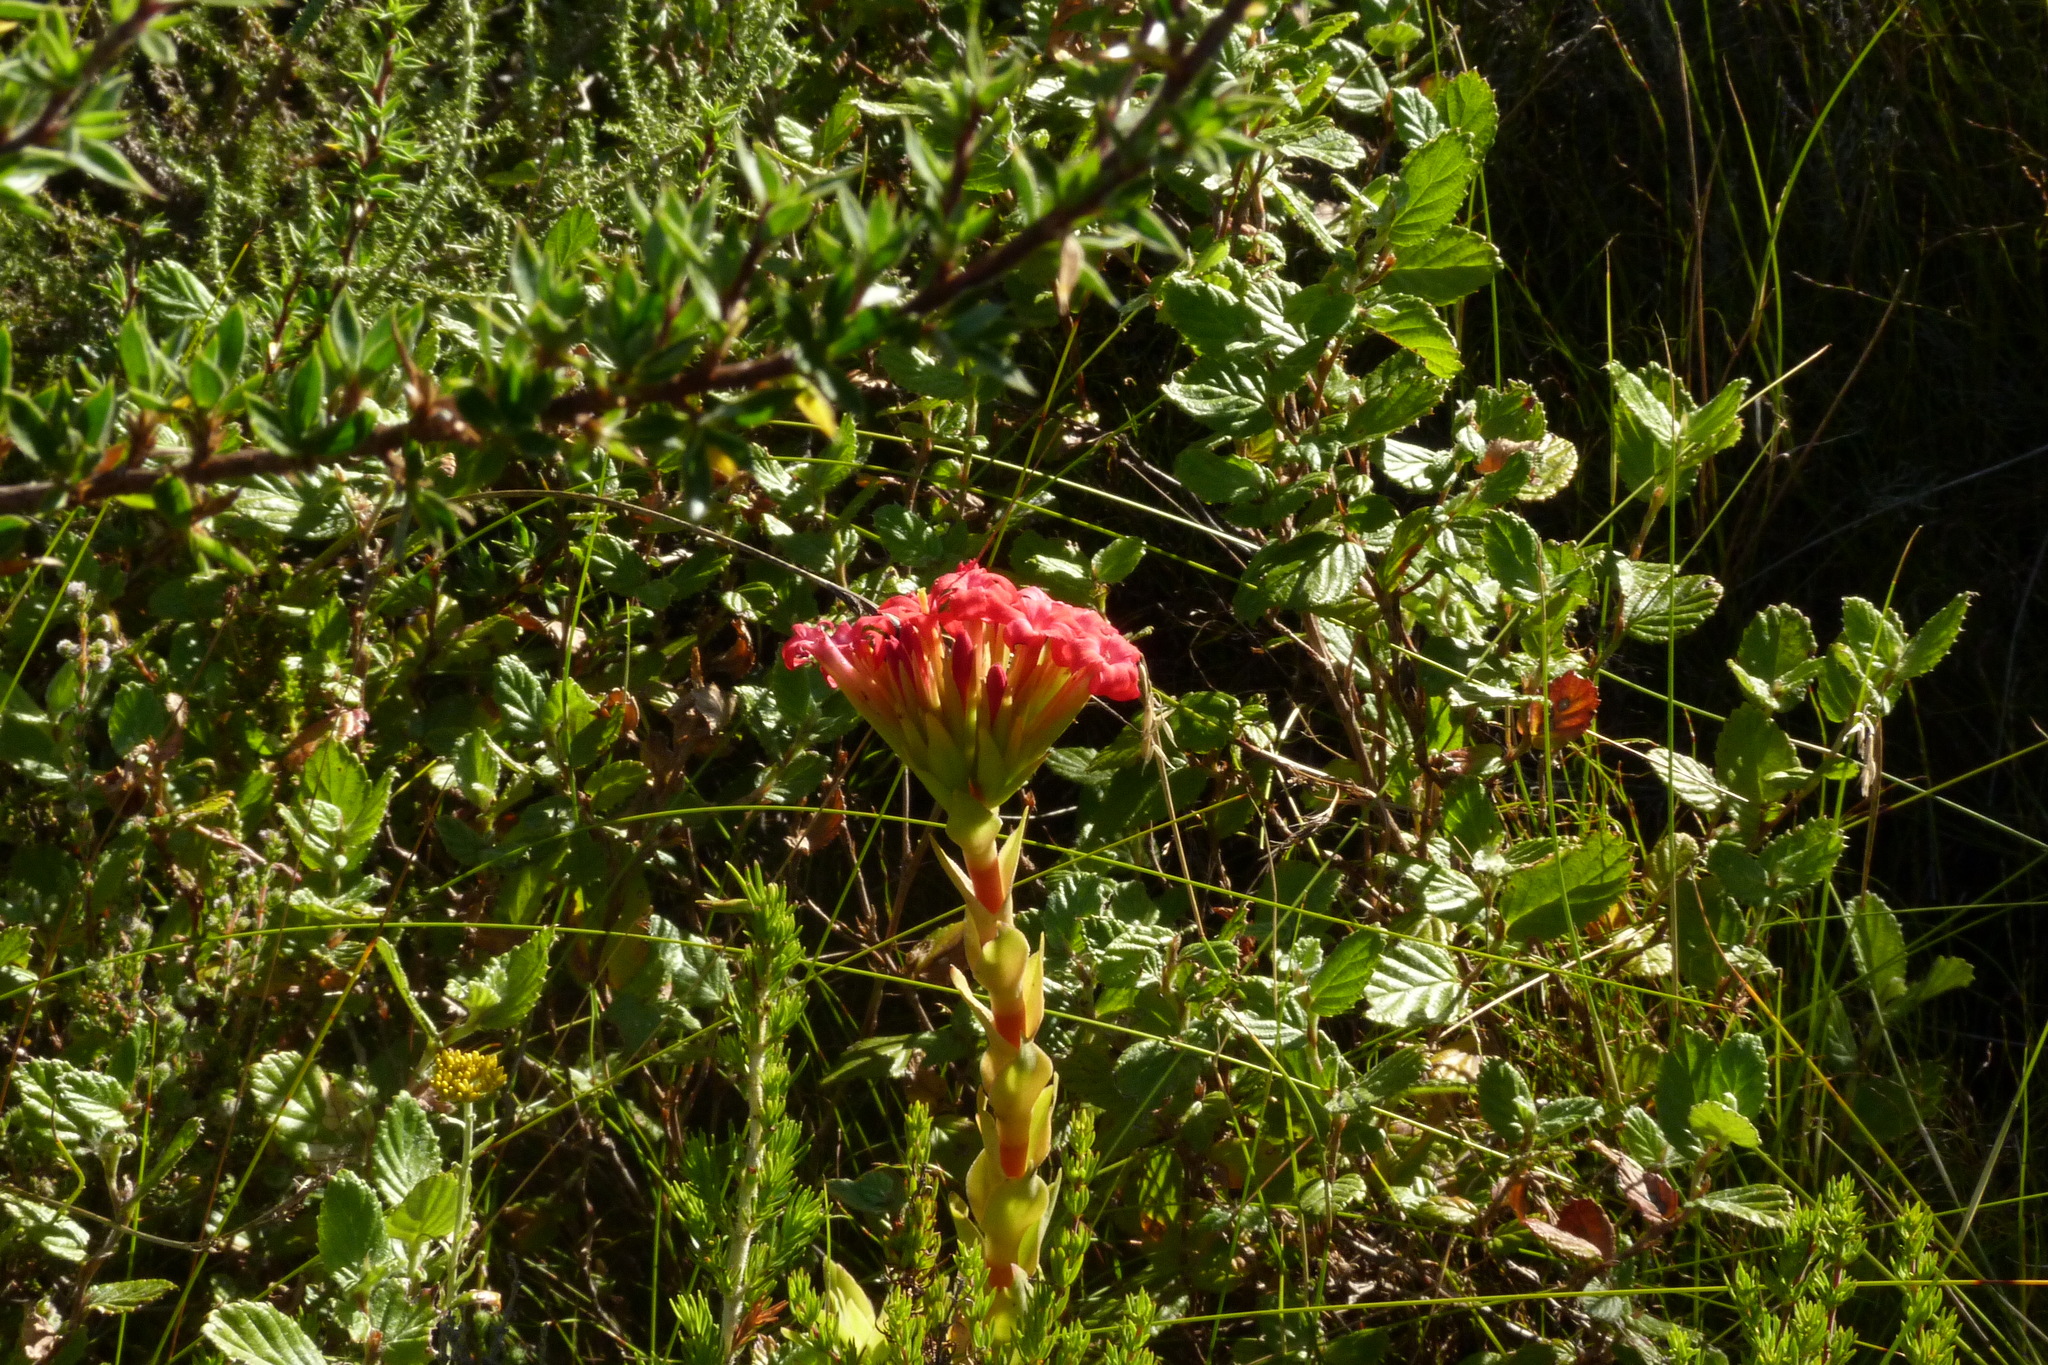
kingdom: Plantae
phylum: Tracheophyta
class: Magnoliopsida
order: Saxifragales
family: Crassulaceae
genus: Crassula
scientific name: Crassula coccinea
